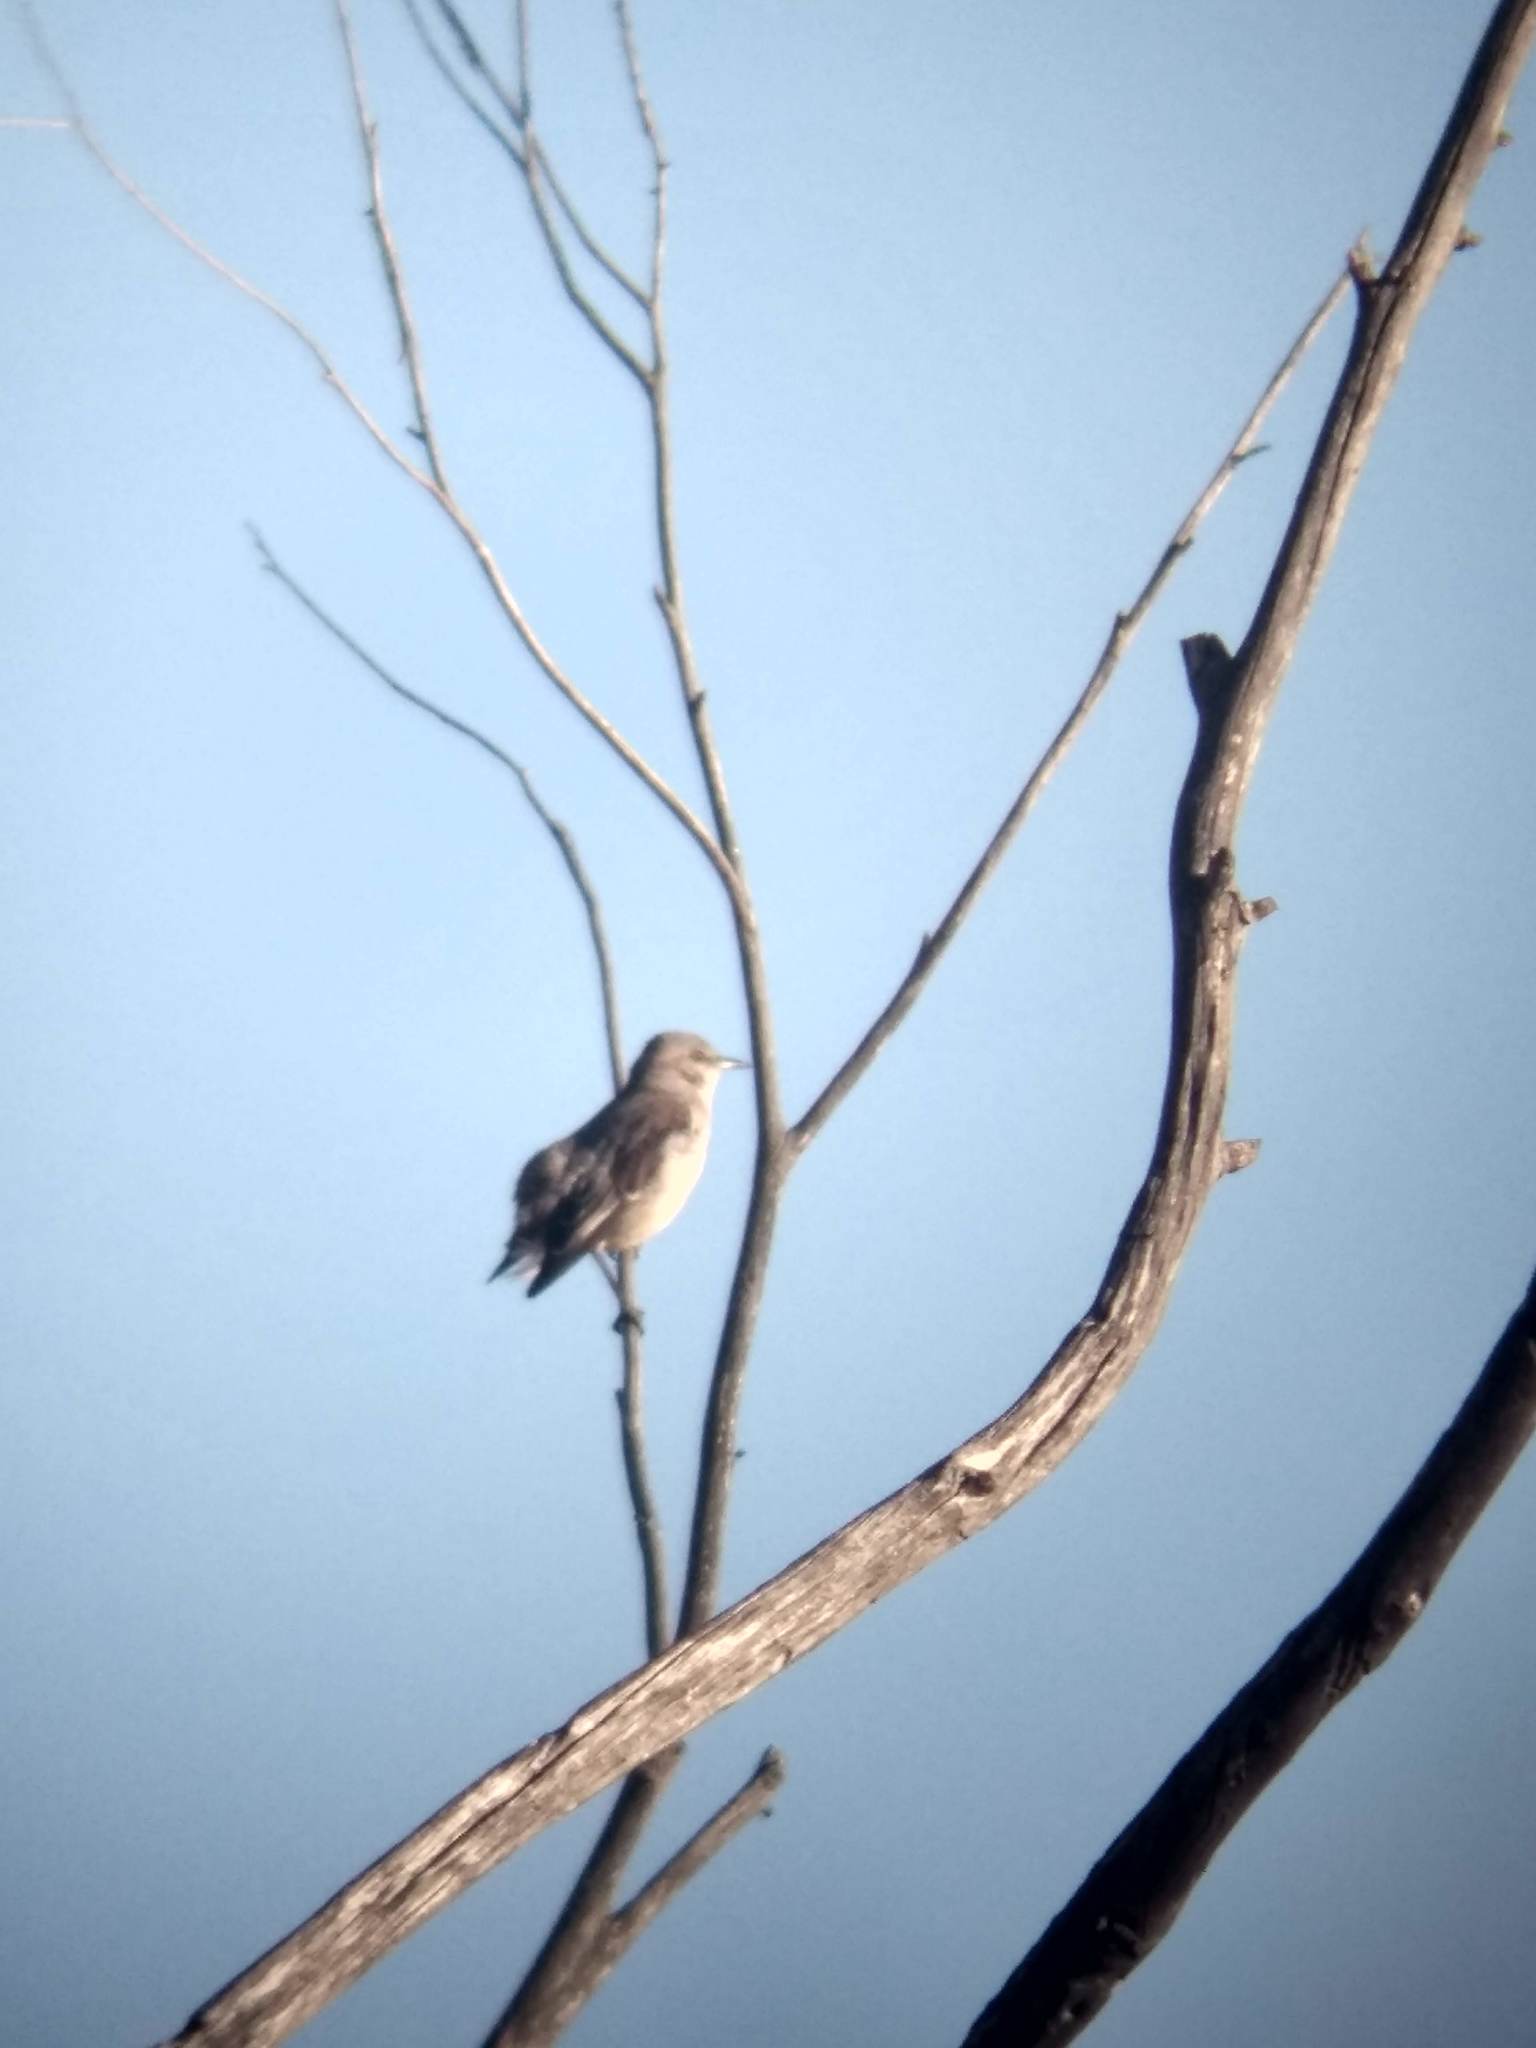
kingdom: Animalia
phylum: Chordata
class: Aves
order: Passeriformes
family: Mimidae
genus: Mimus
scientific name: Mimus polyglottos
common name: Northern mockingbird
